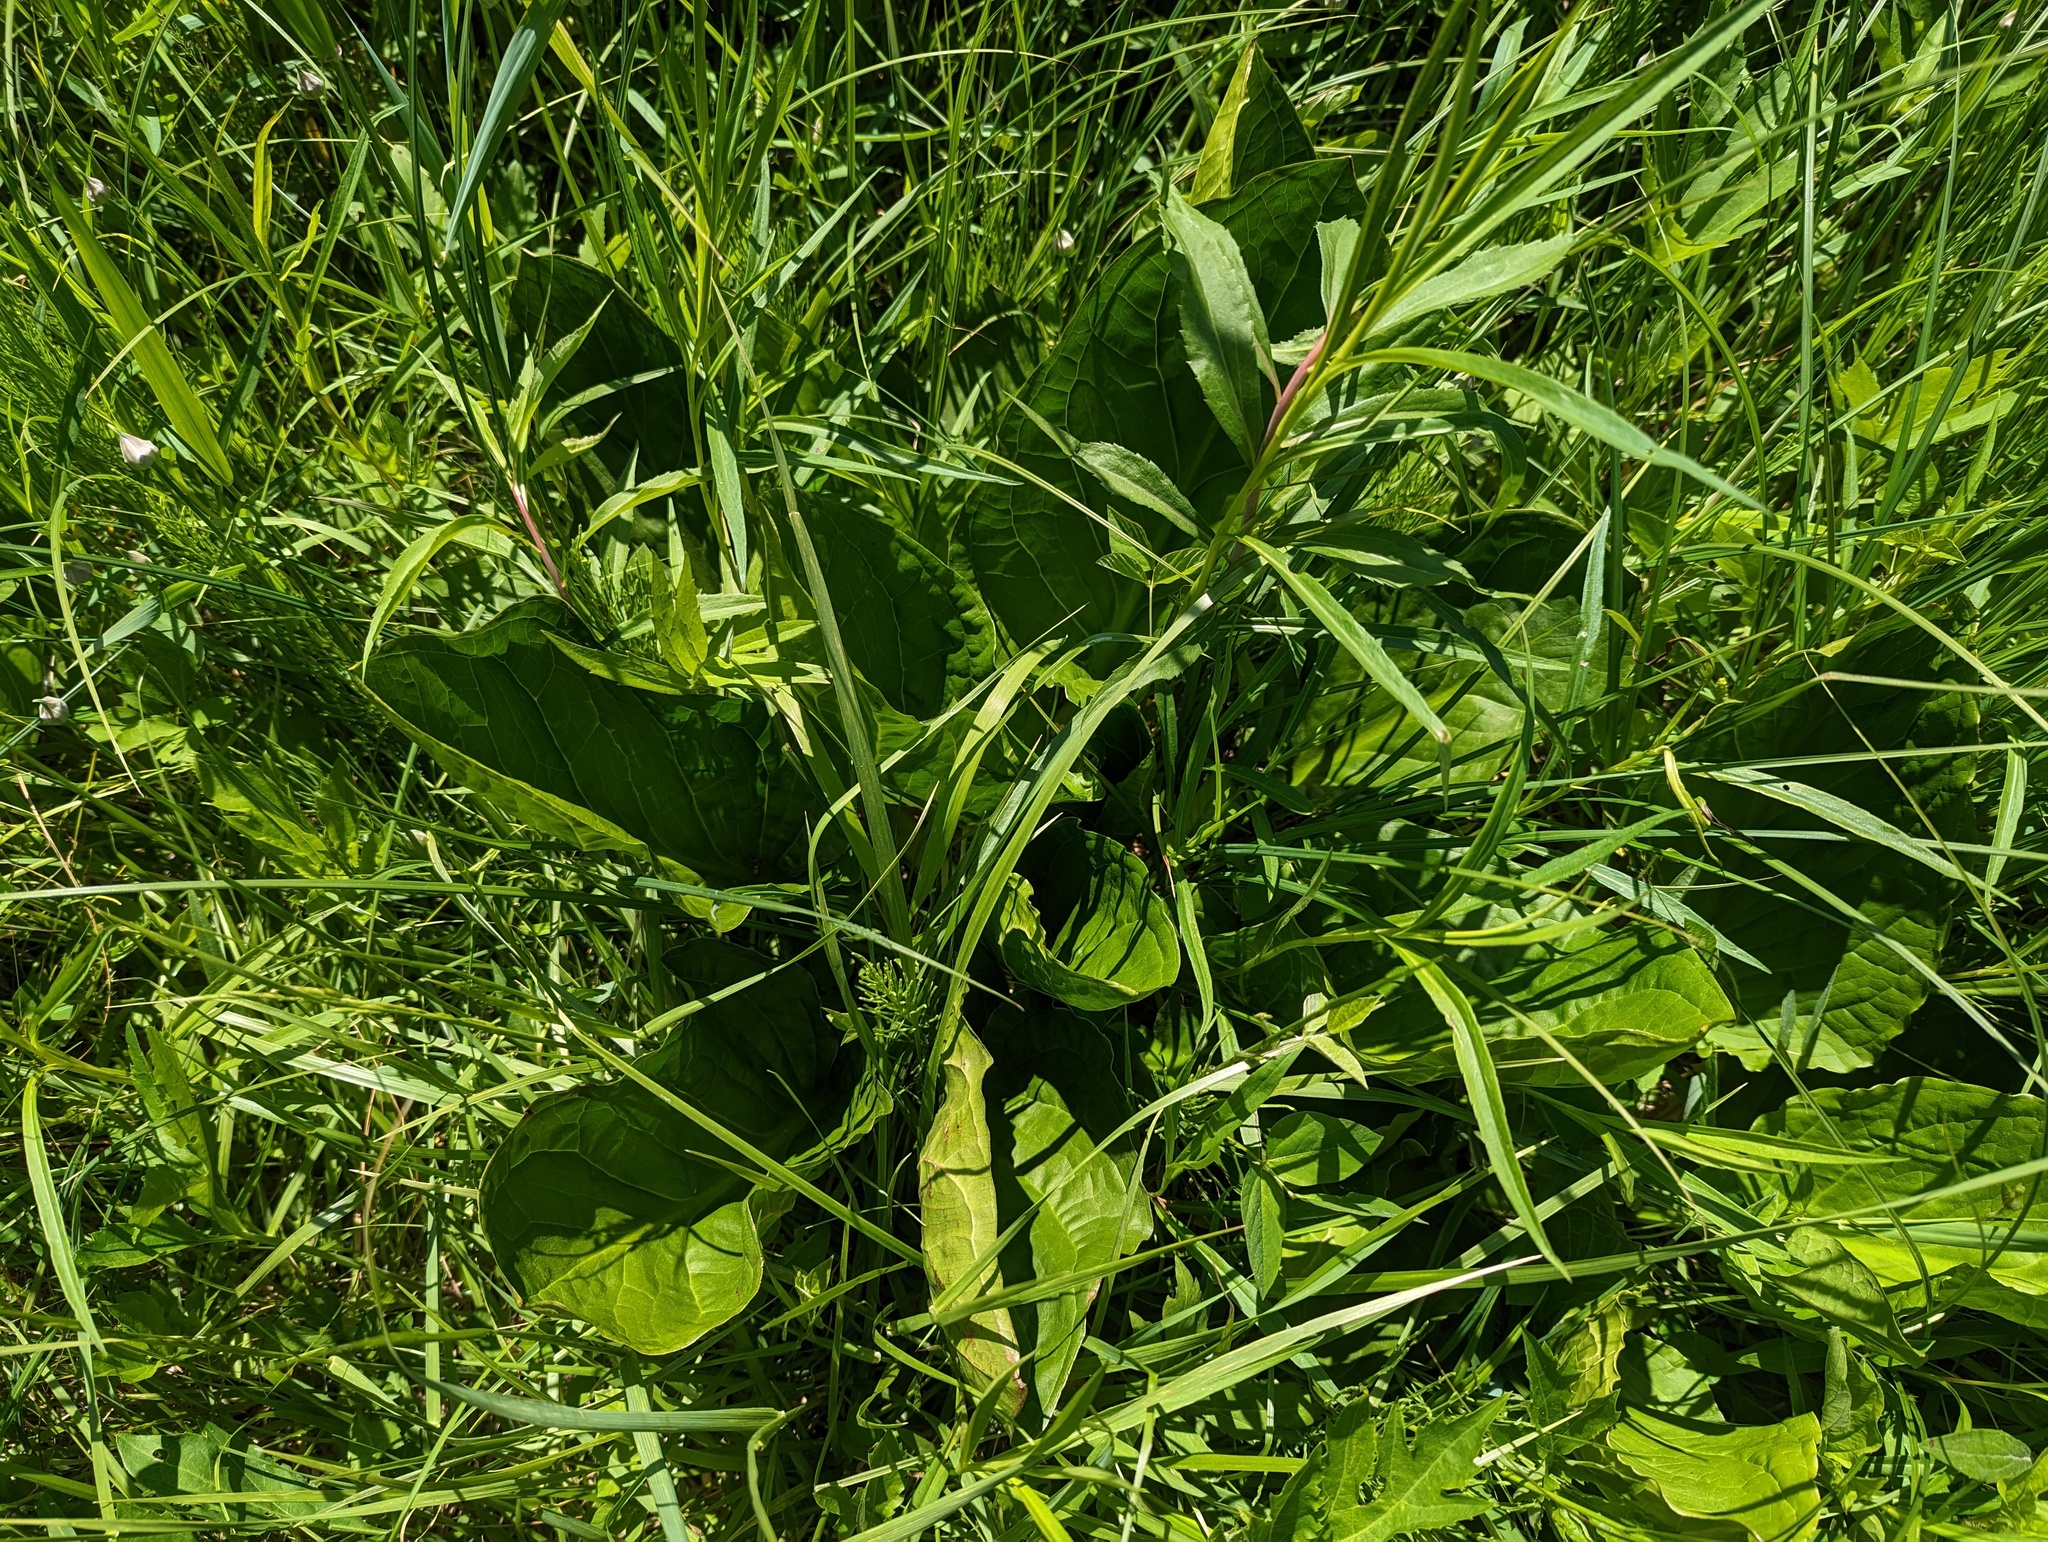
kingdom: Plantae
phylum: Tracheophyta
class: Liliopsida
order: Alismatales
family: Araceae
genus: Symplocarpus
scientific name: Symplocarpus foetidus
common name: Eastern skunk cabbage
